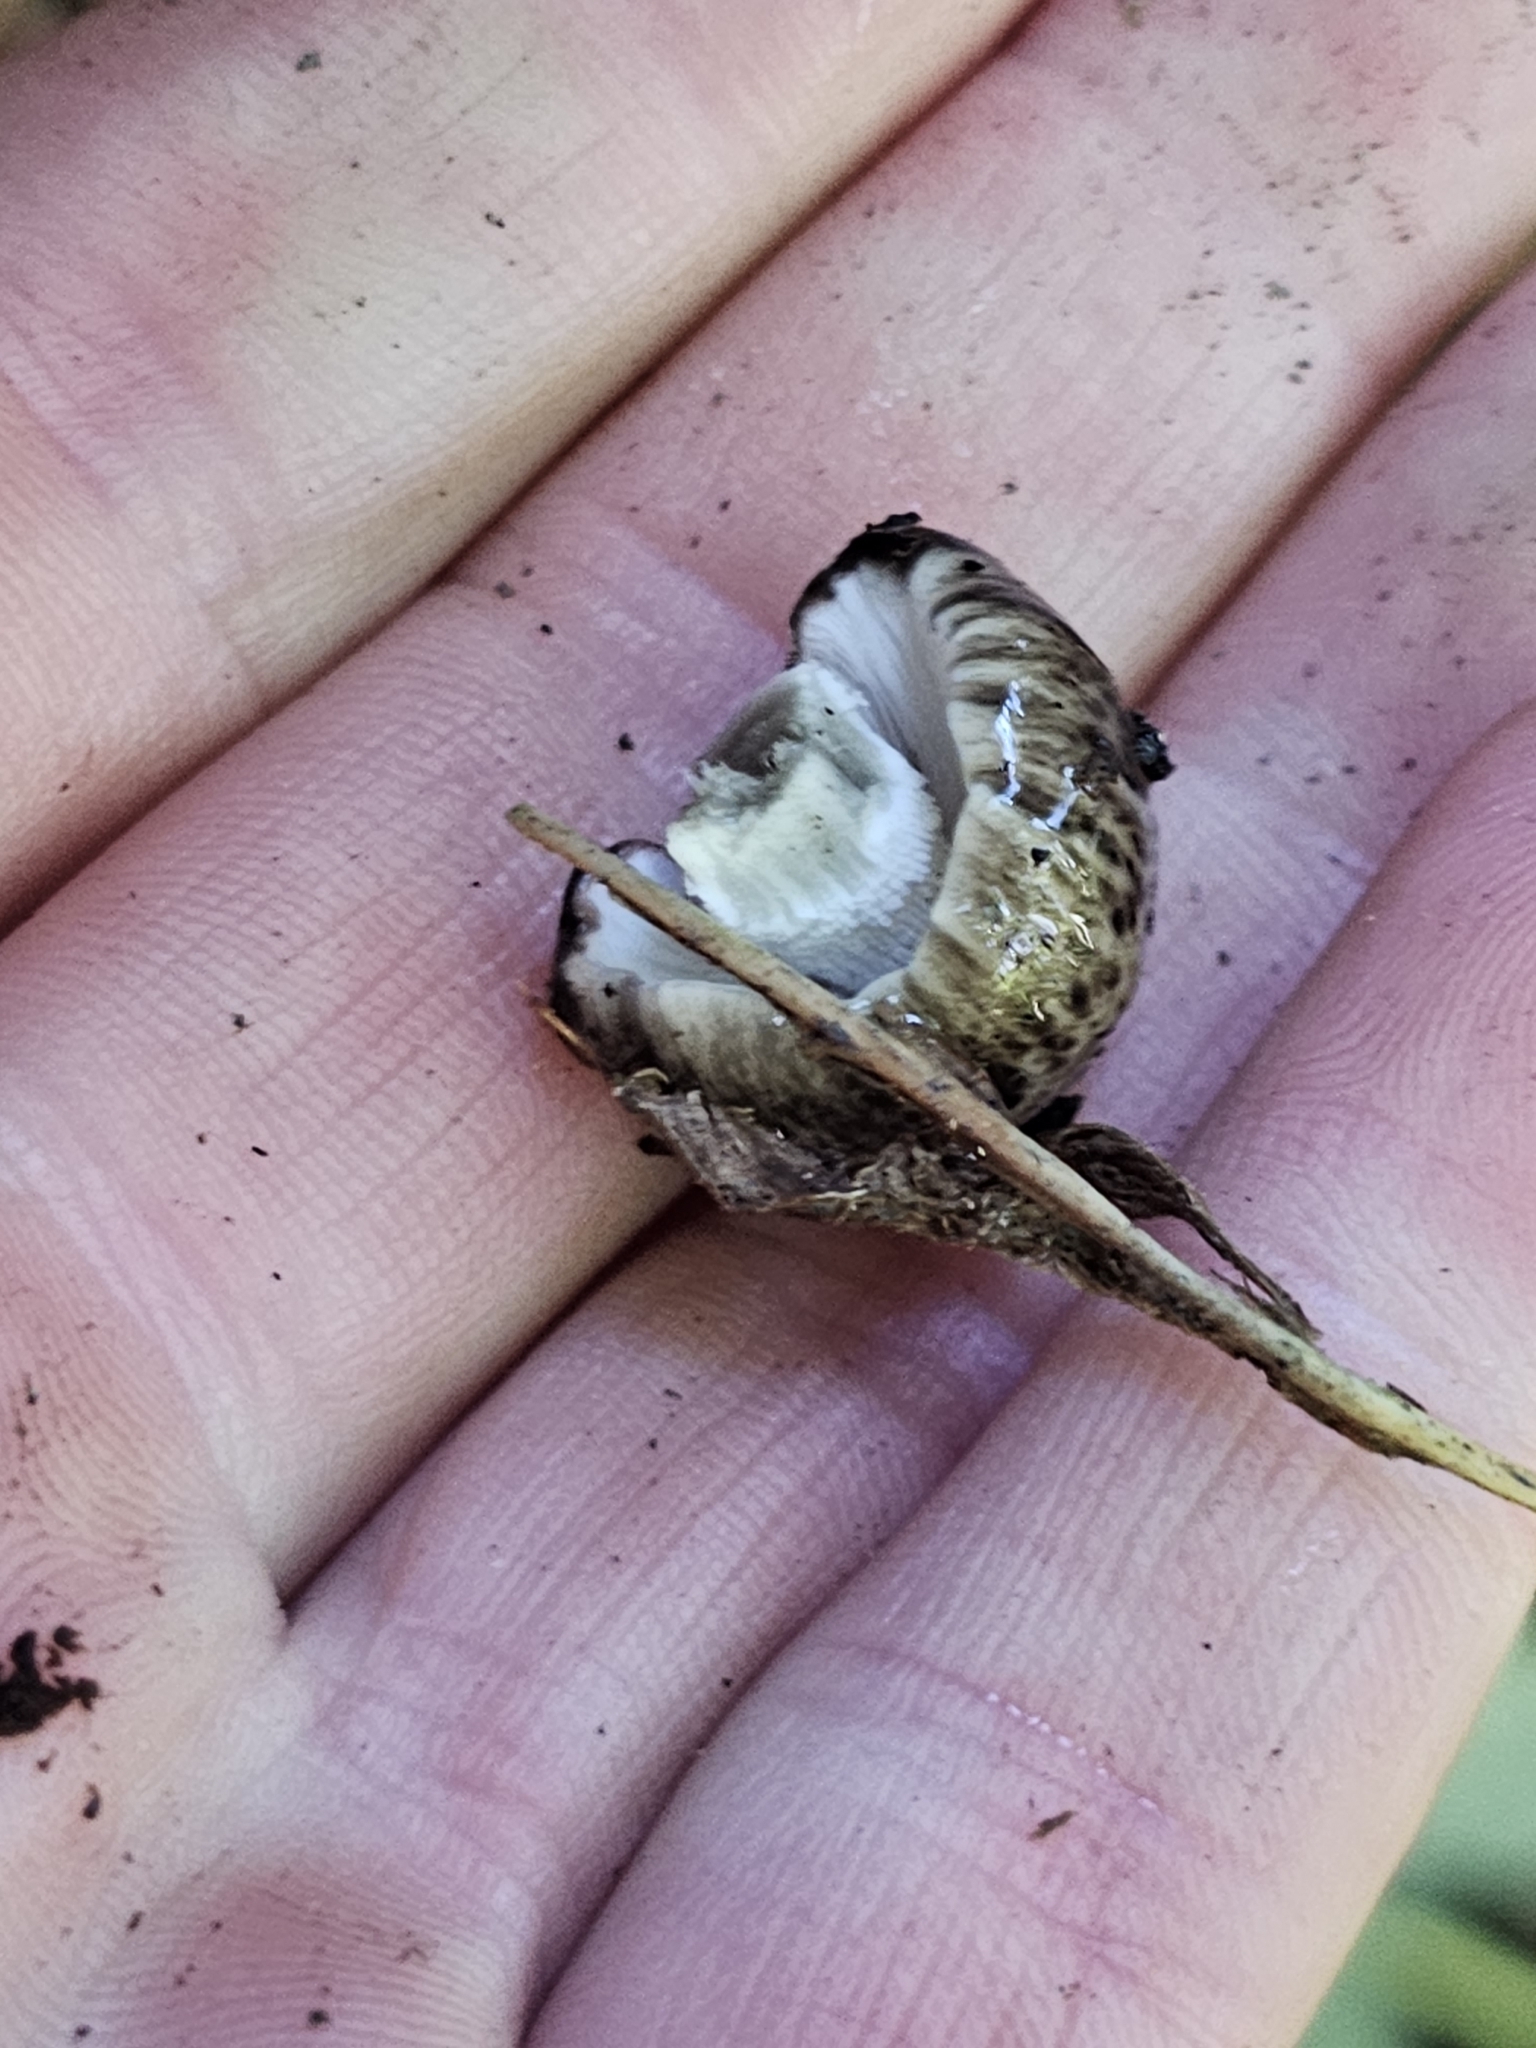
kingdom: Fungi
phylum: Basidiomycota
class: Agaricomycetes
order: Agaricales
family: Bolbitiaceae
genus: Bolbitius
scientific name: Bolbitius muscicola
